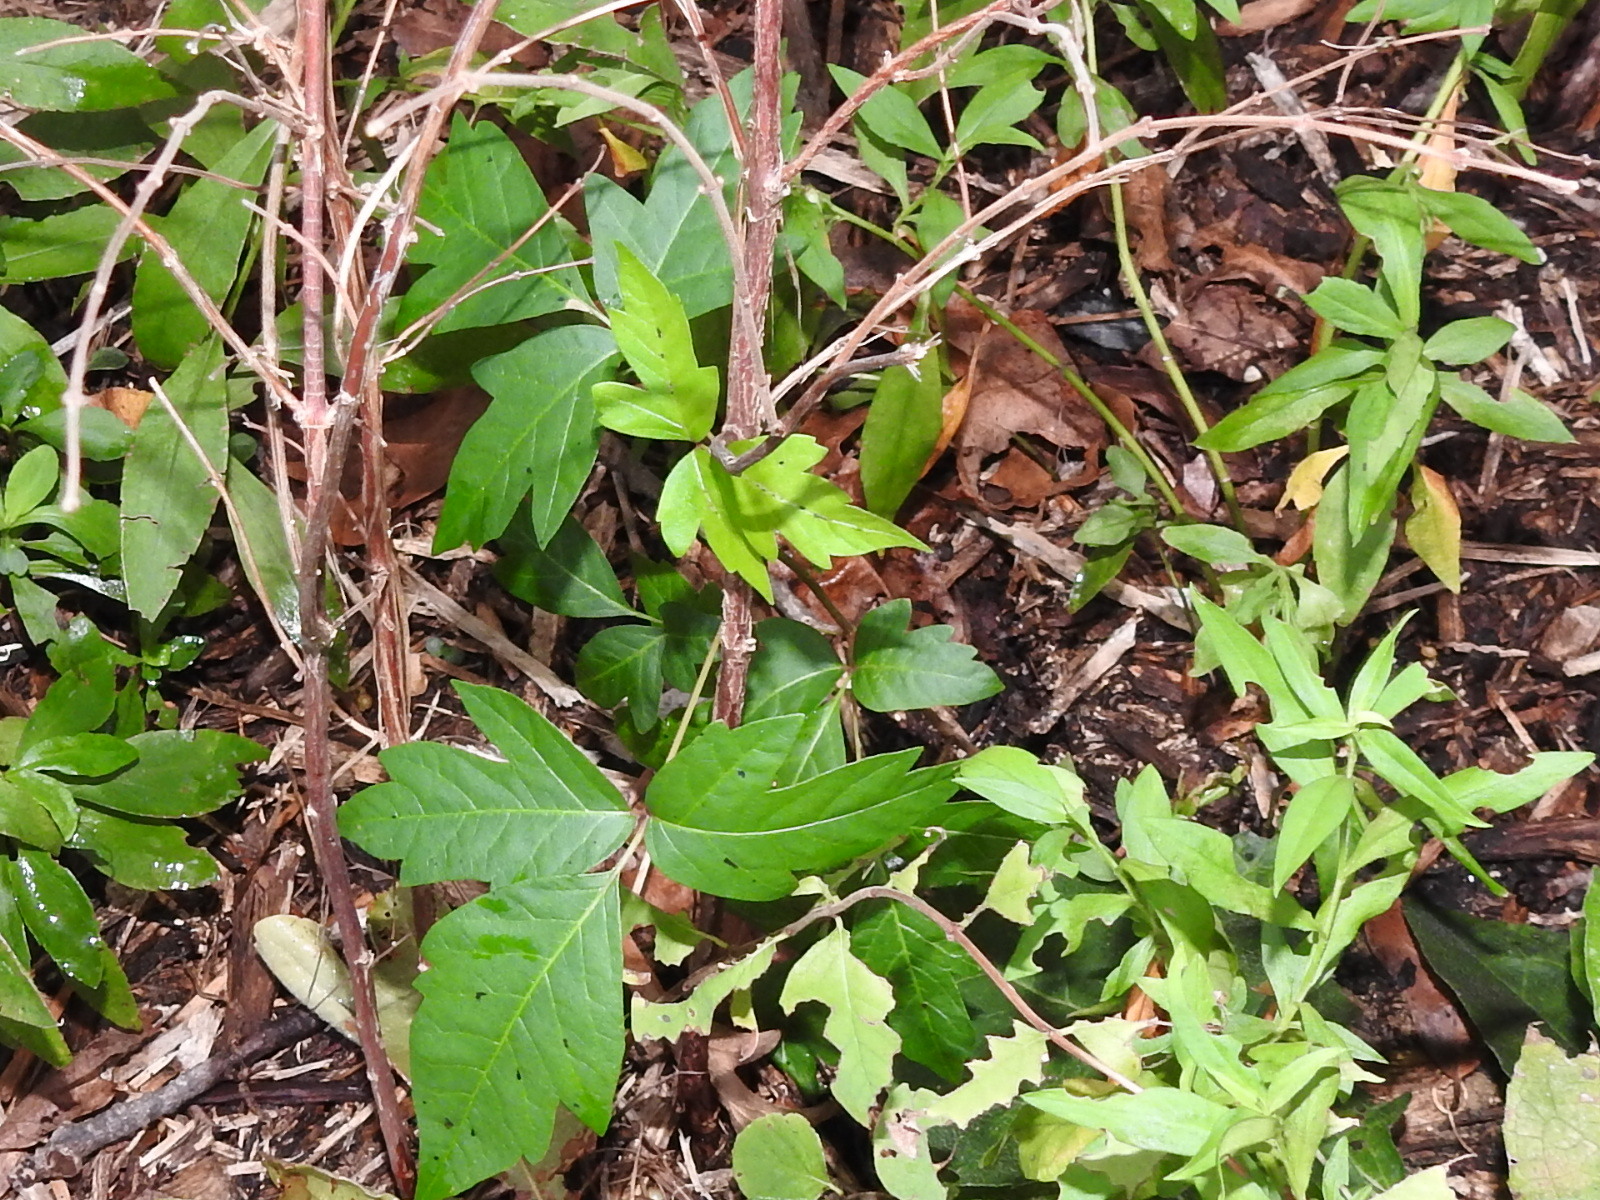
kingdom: Plantae
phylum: Tracheophyta
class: Magnoliopsida
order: Sapindales
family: Anacardiaceae
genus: Toxicodendron
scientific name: Toxicodendron radicans
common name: Poison ivy
